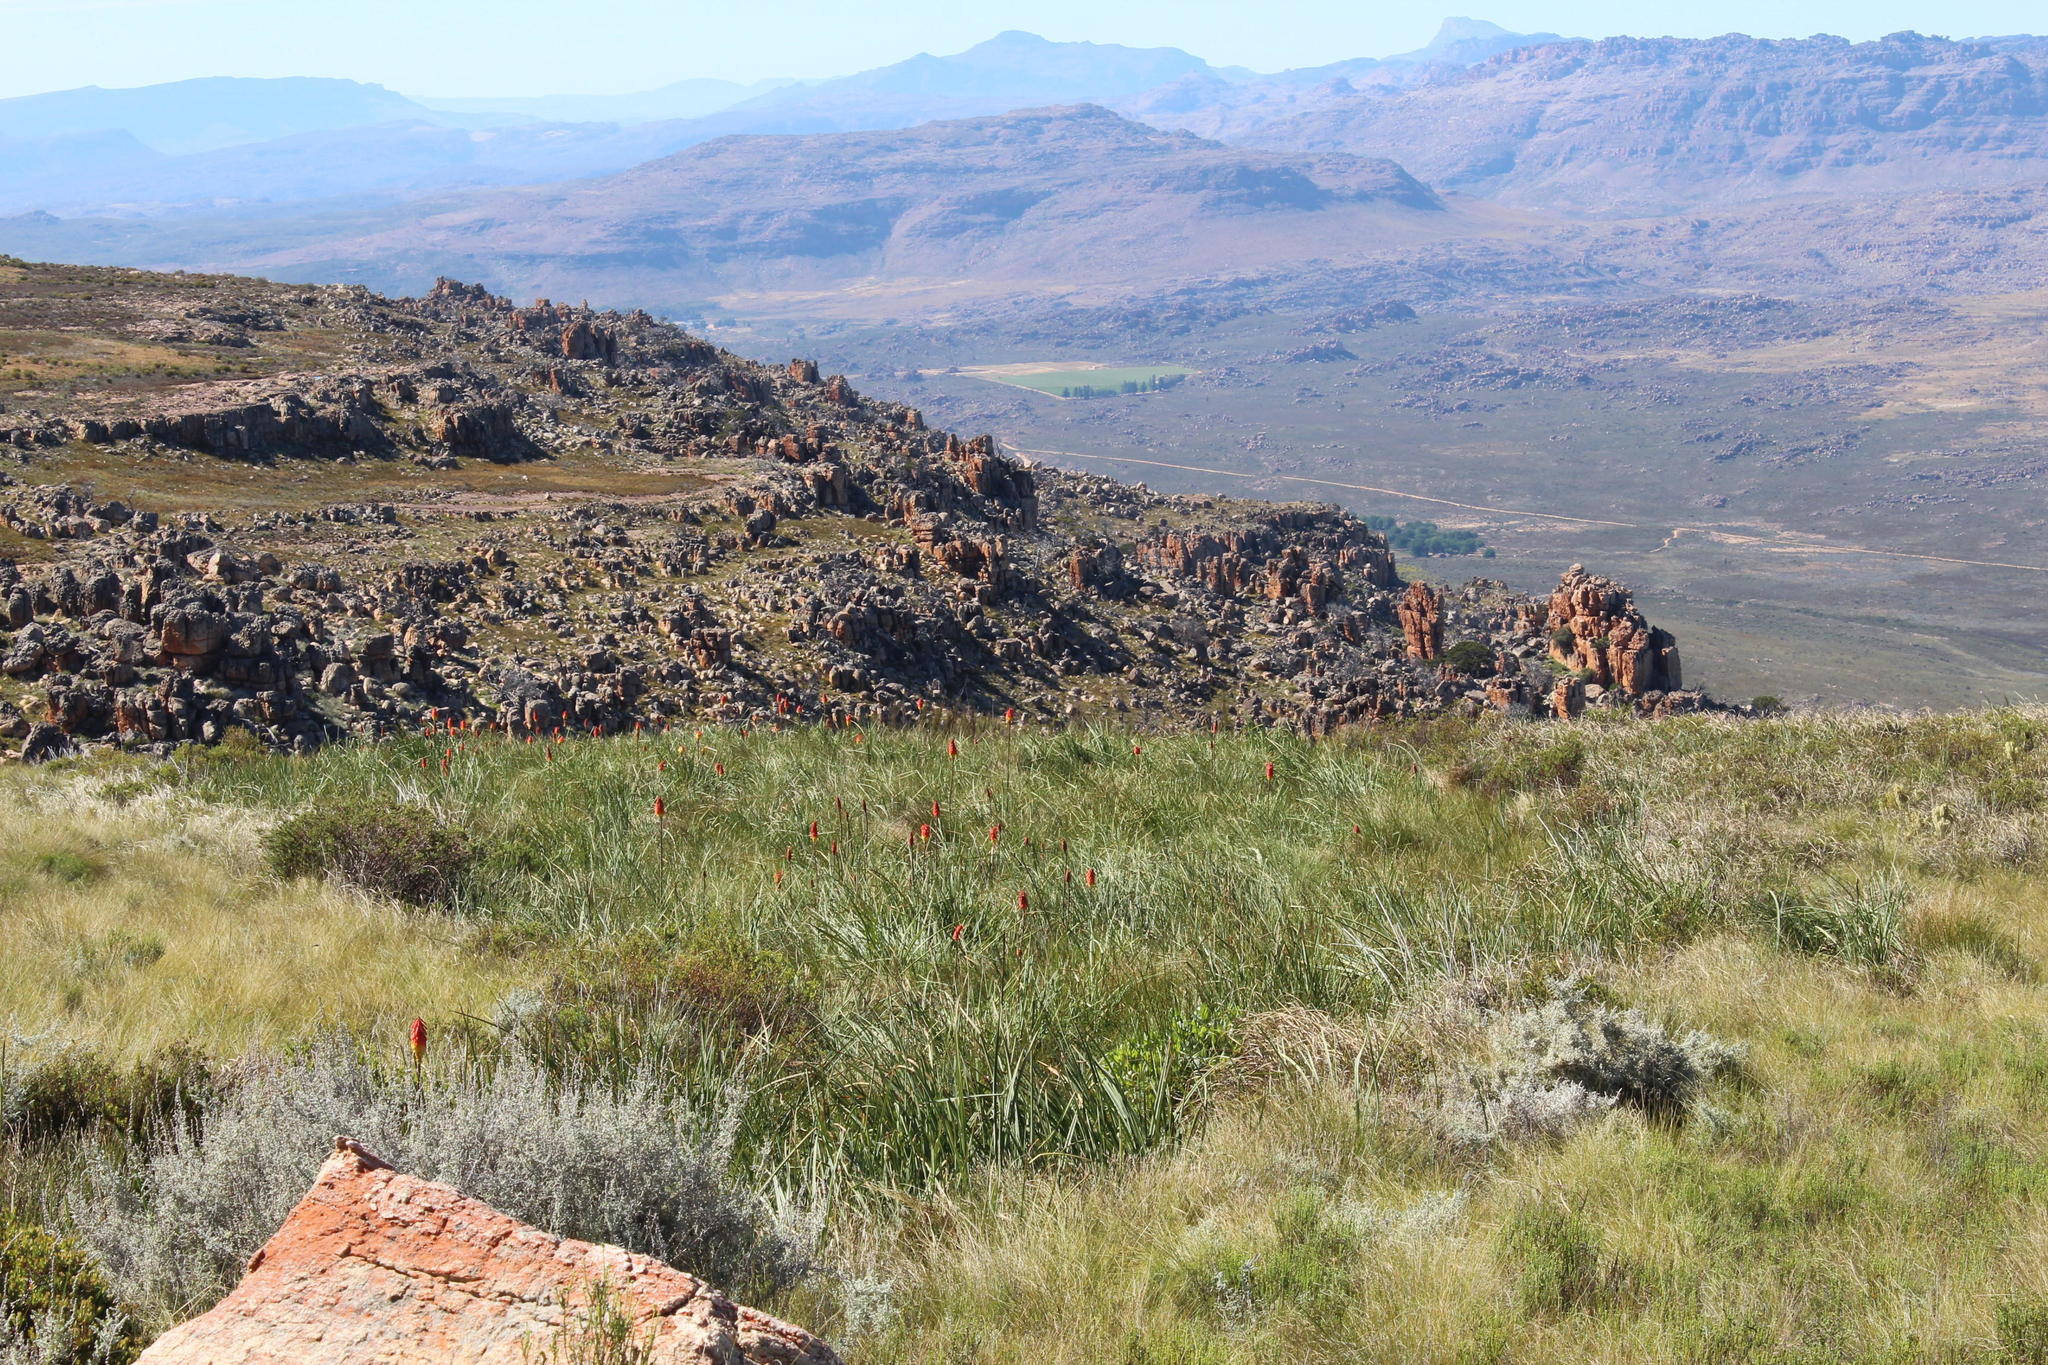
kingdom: Plantae
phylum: Tracheophyta
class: Liliopsida
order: Asparagales
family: Asphodelaceae
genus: Kniphofia
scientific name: Kniphofia uvaria
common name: Red-hot-poker
